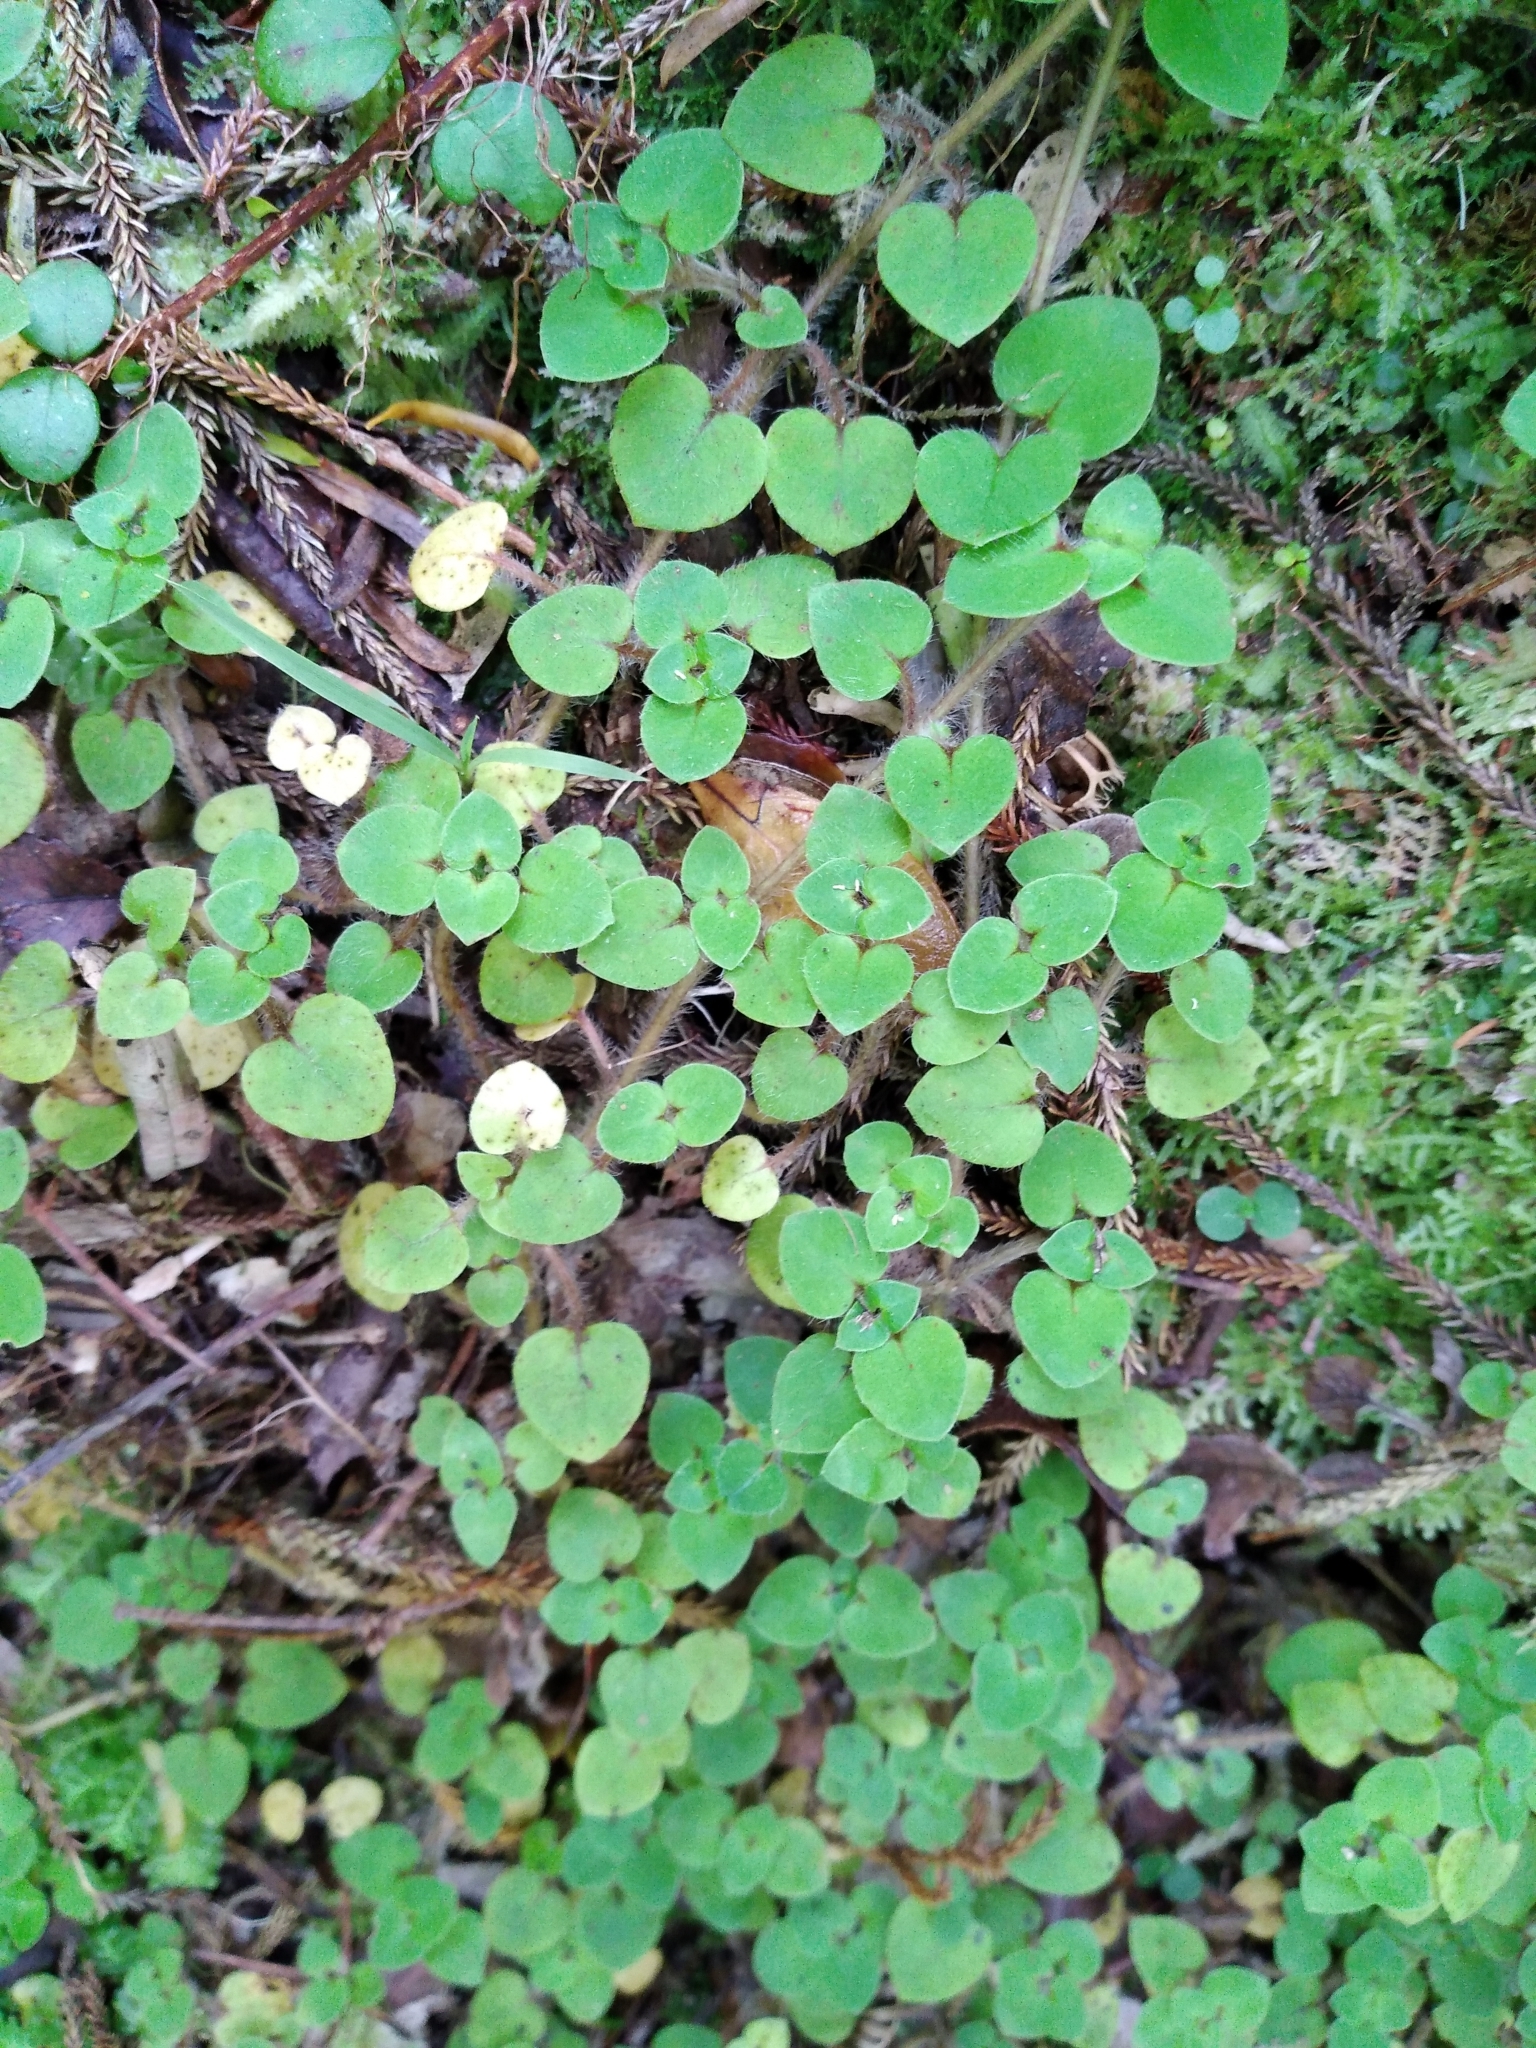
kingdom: Plantae
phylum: Tracheophyta
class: Magnoliopsida
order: Gentianales
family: Rubiaceae
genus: Nertera
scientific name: Nertera villosa
